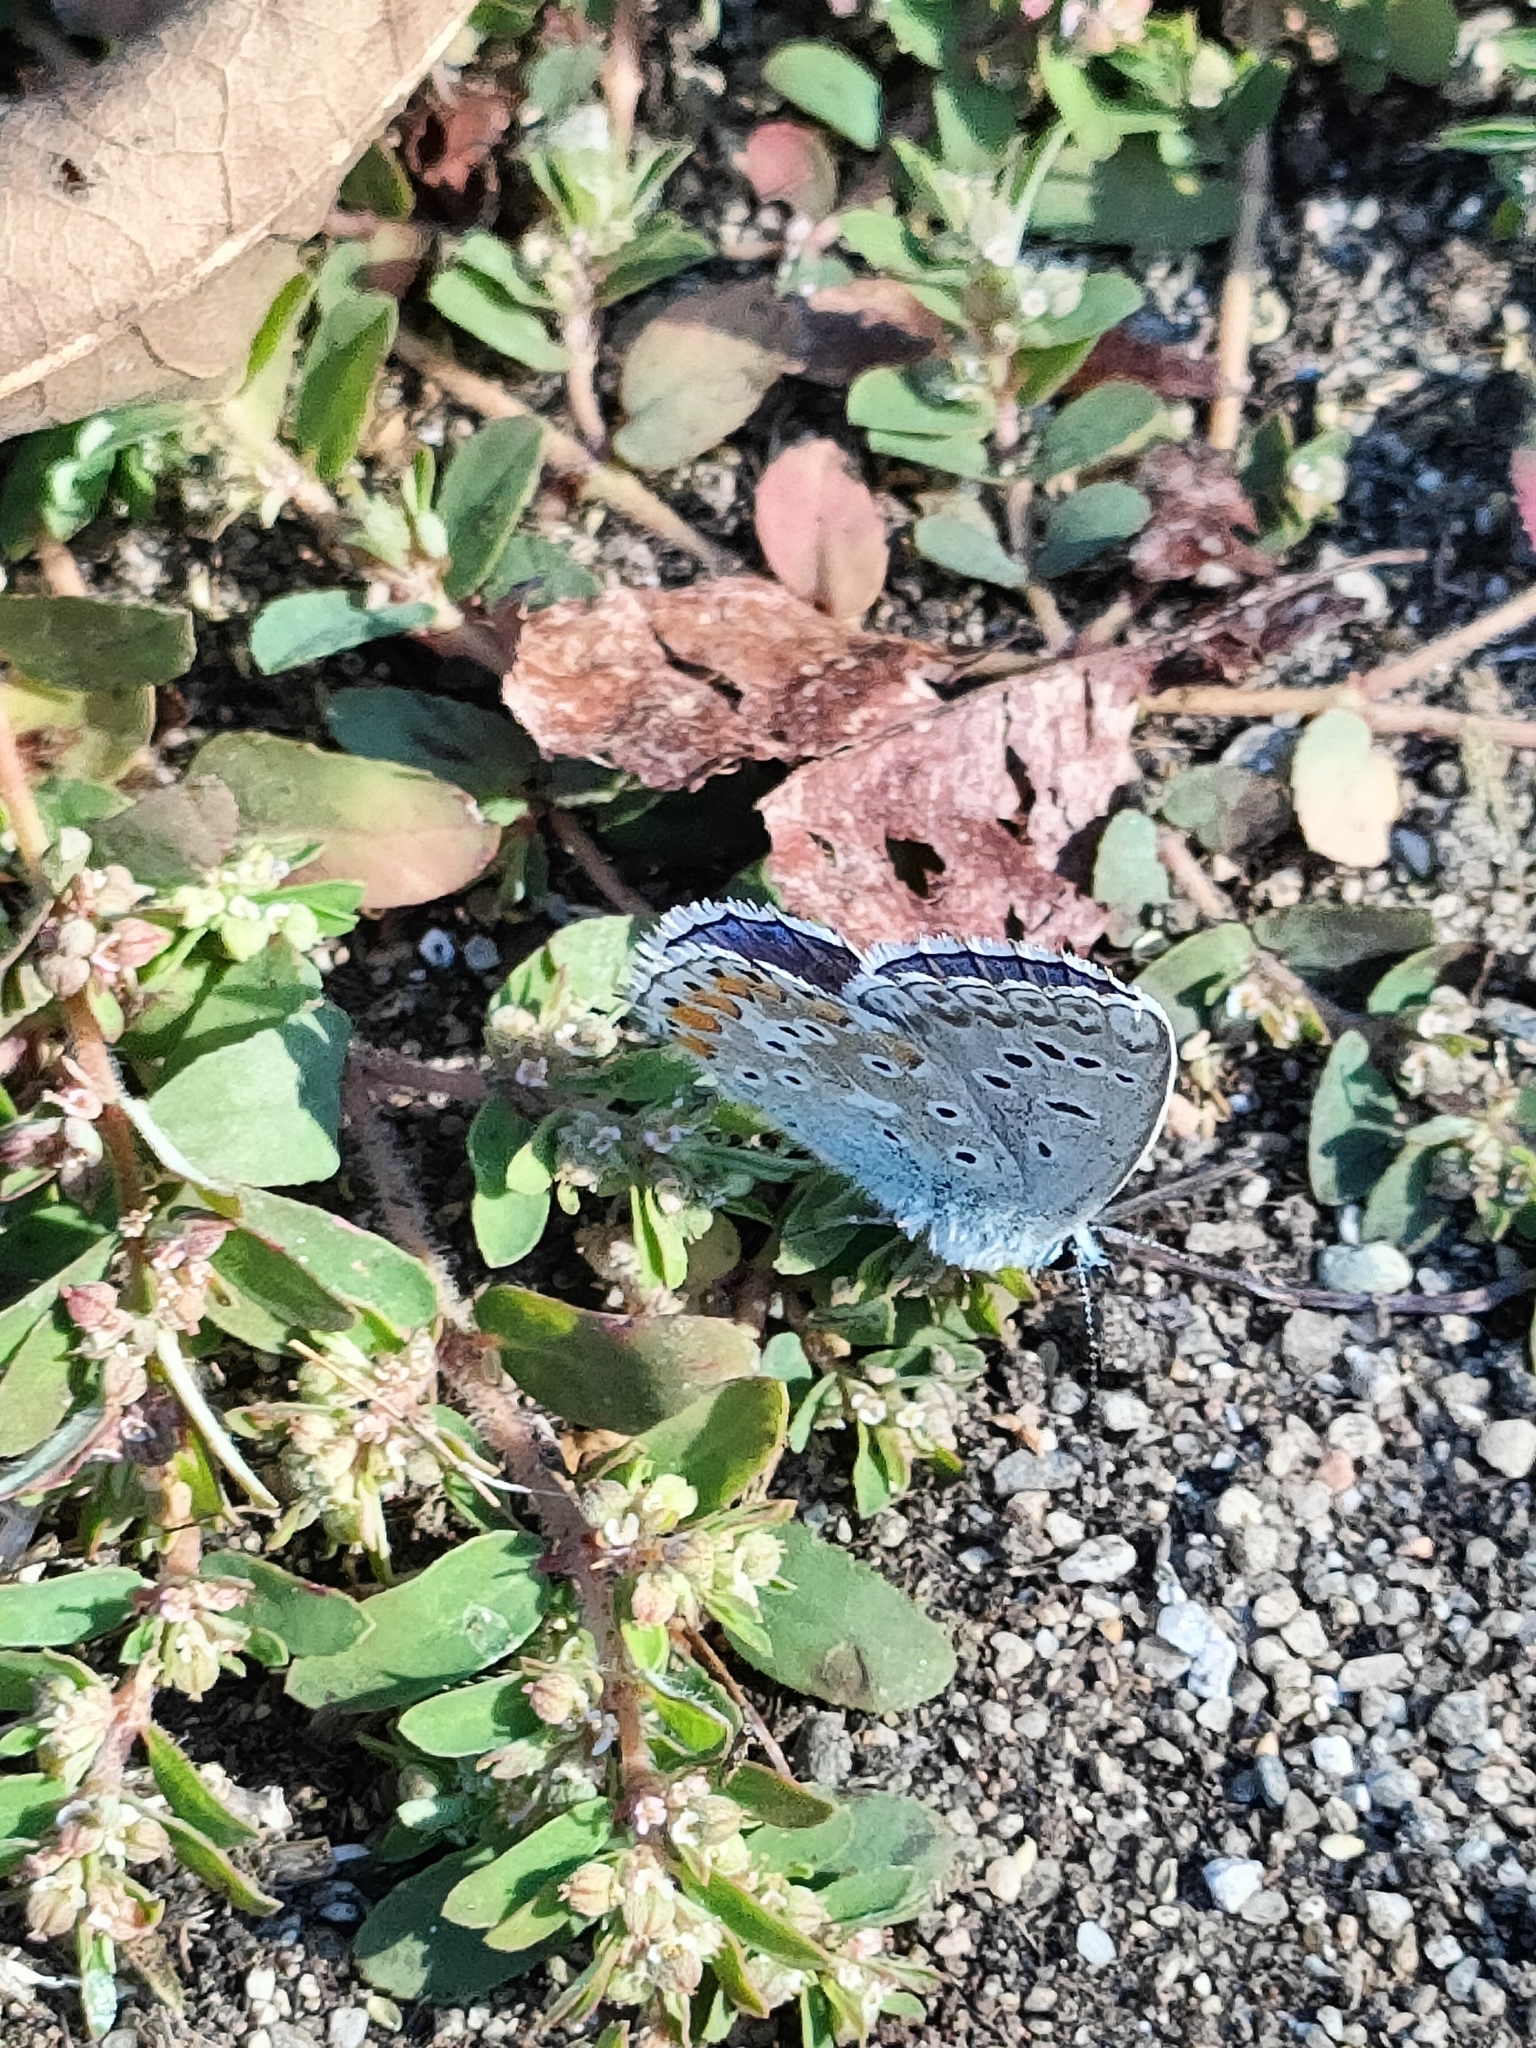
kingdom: Animalia
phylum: Arthropoda
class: Insecta
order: Lepidoptera
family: Lycaenidae
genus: Lysandra
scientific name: Lysandra bellargus
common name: Adonis blue
